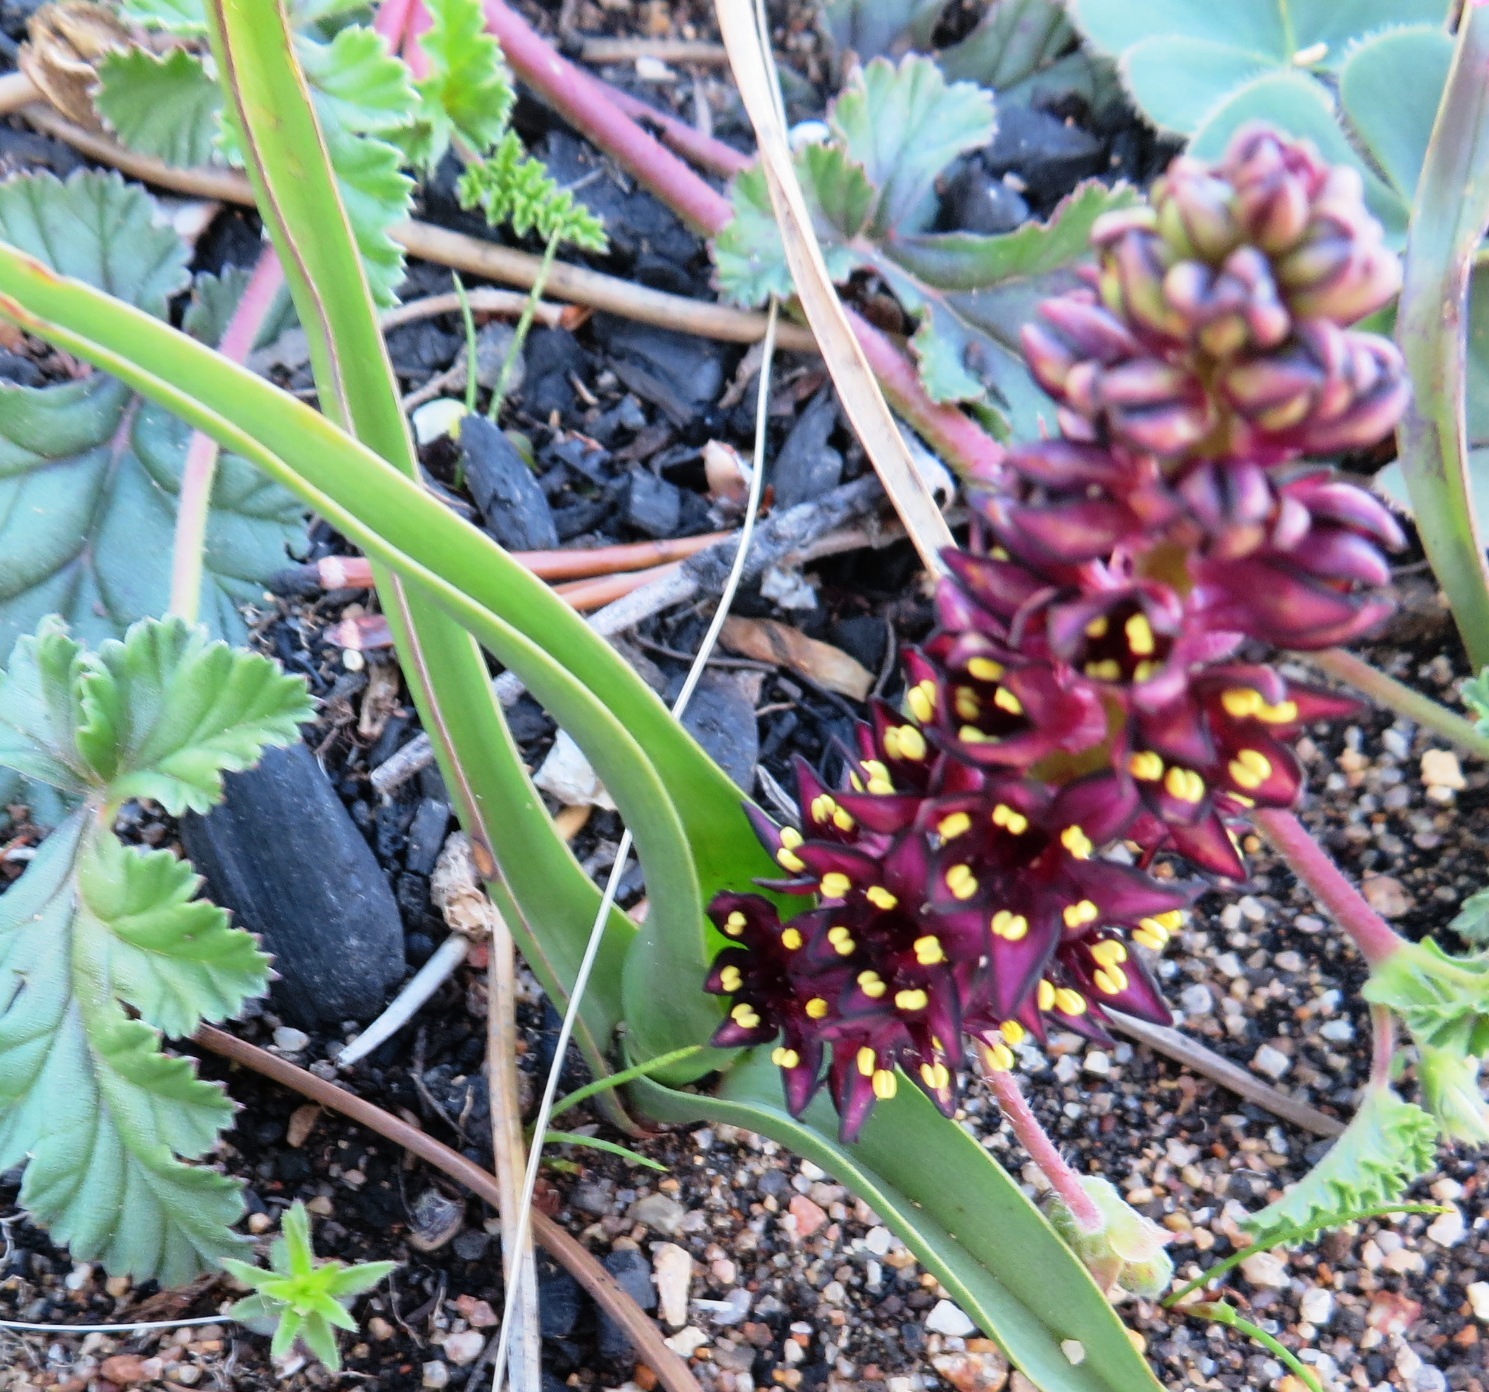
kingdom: Plantae
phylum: Tracheophyta
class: Liliopsida
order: Liliales
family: Colchicaceae
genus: Wurmbea
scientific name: Wurmbea recurva
